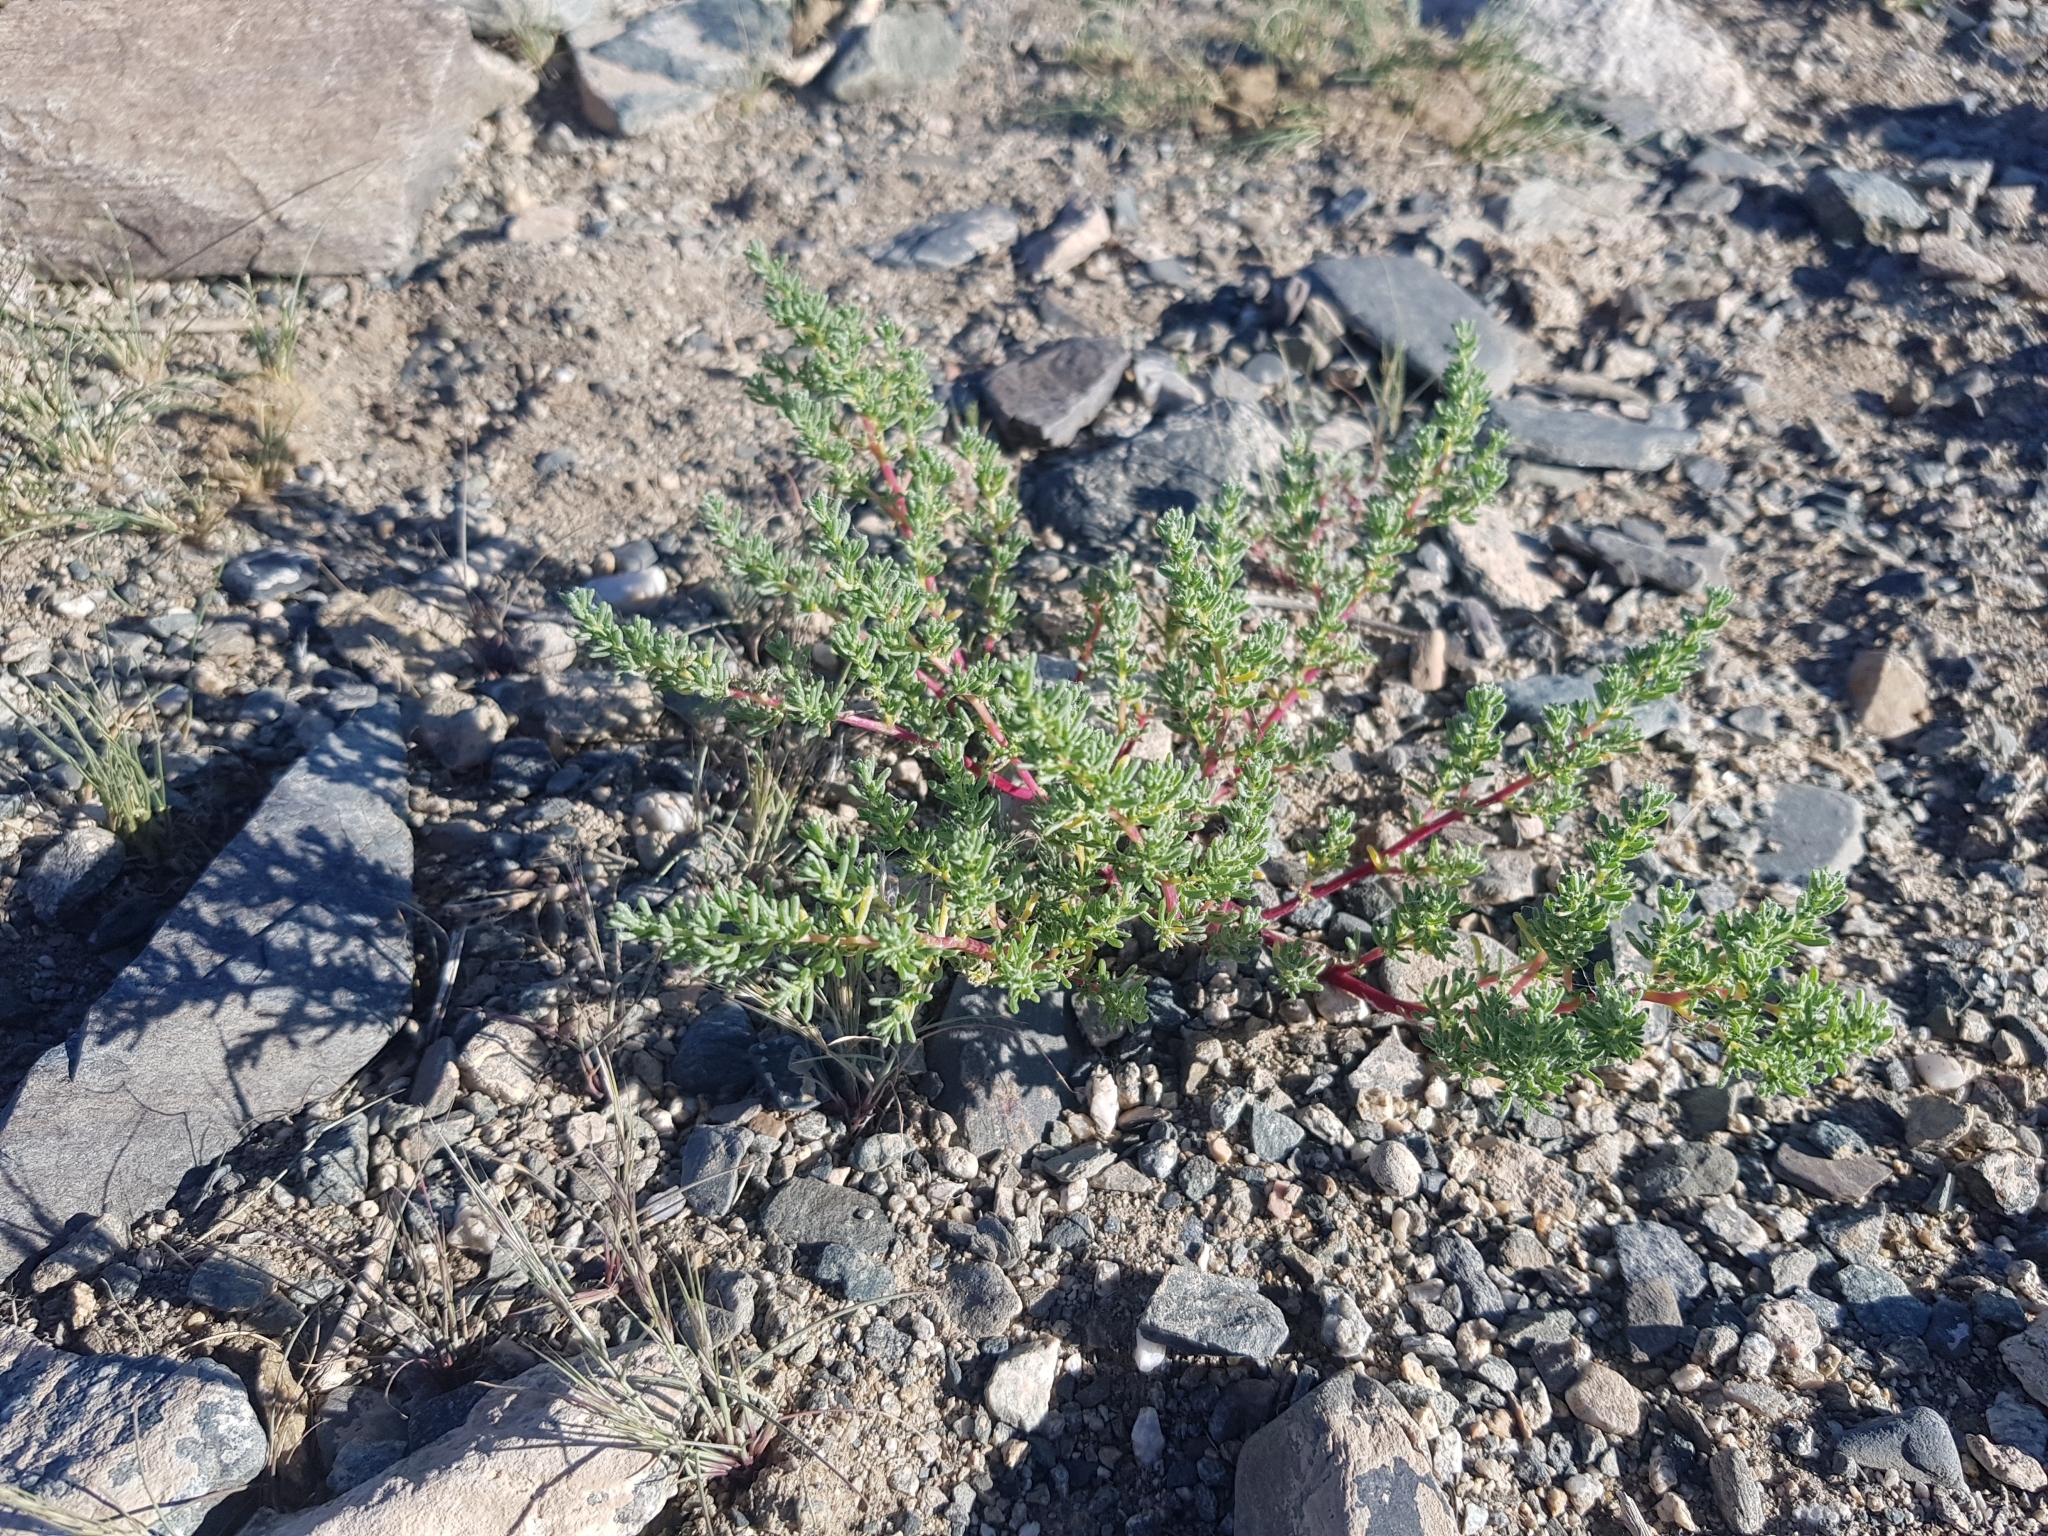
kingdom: Plantae
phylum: Tracheophyta
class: Magnoliopsida
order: Caryophyllales
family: Amaranthaceae
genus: Halogeton
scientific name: Halogeton arachnoides
